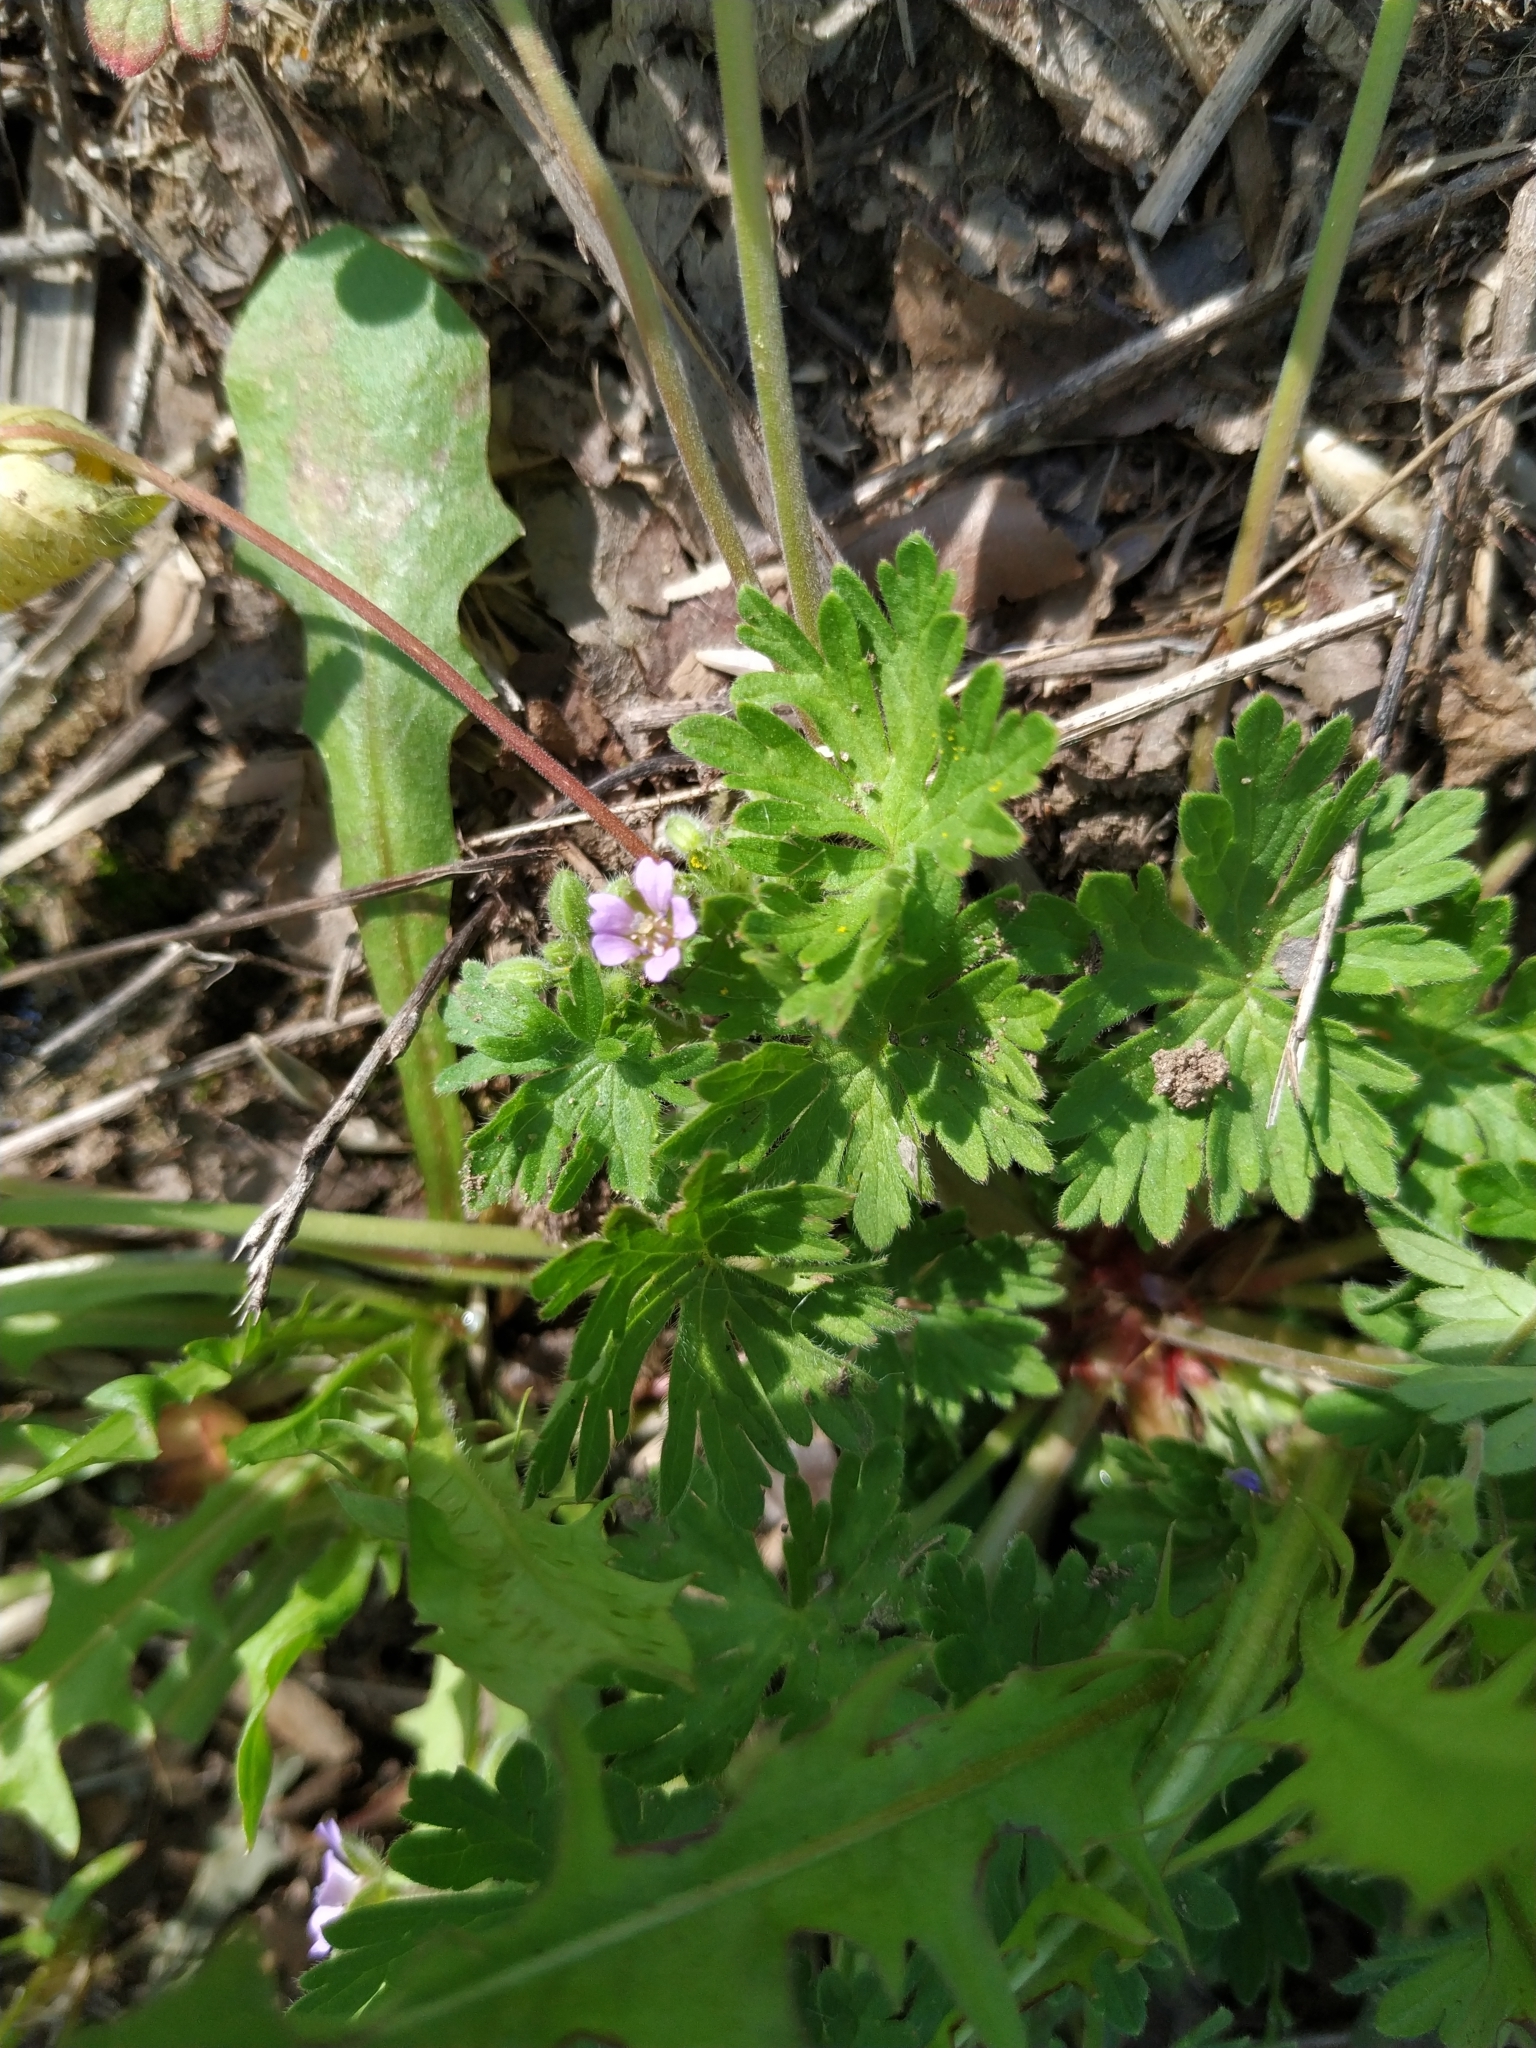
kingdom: Plantae
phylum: Tracheophyta
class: Magnoliopsida
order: Geraniales
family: Geraniaceae
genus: Geranium
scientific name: Geranium pusillum
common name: Small geranium
